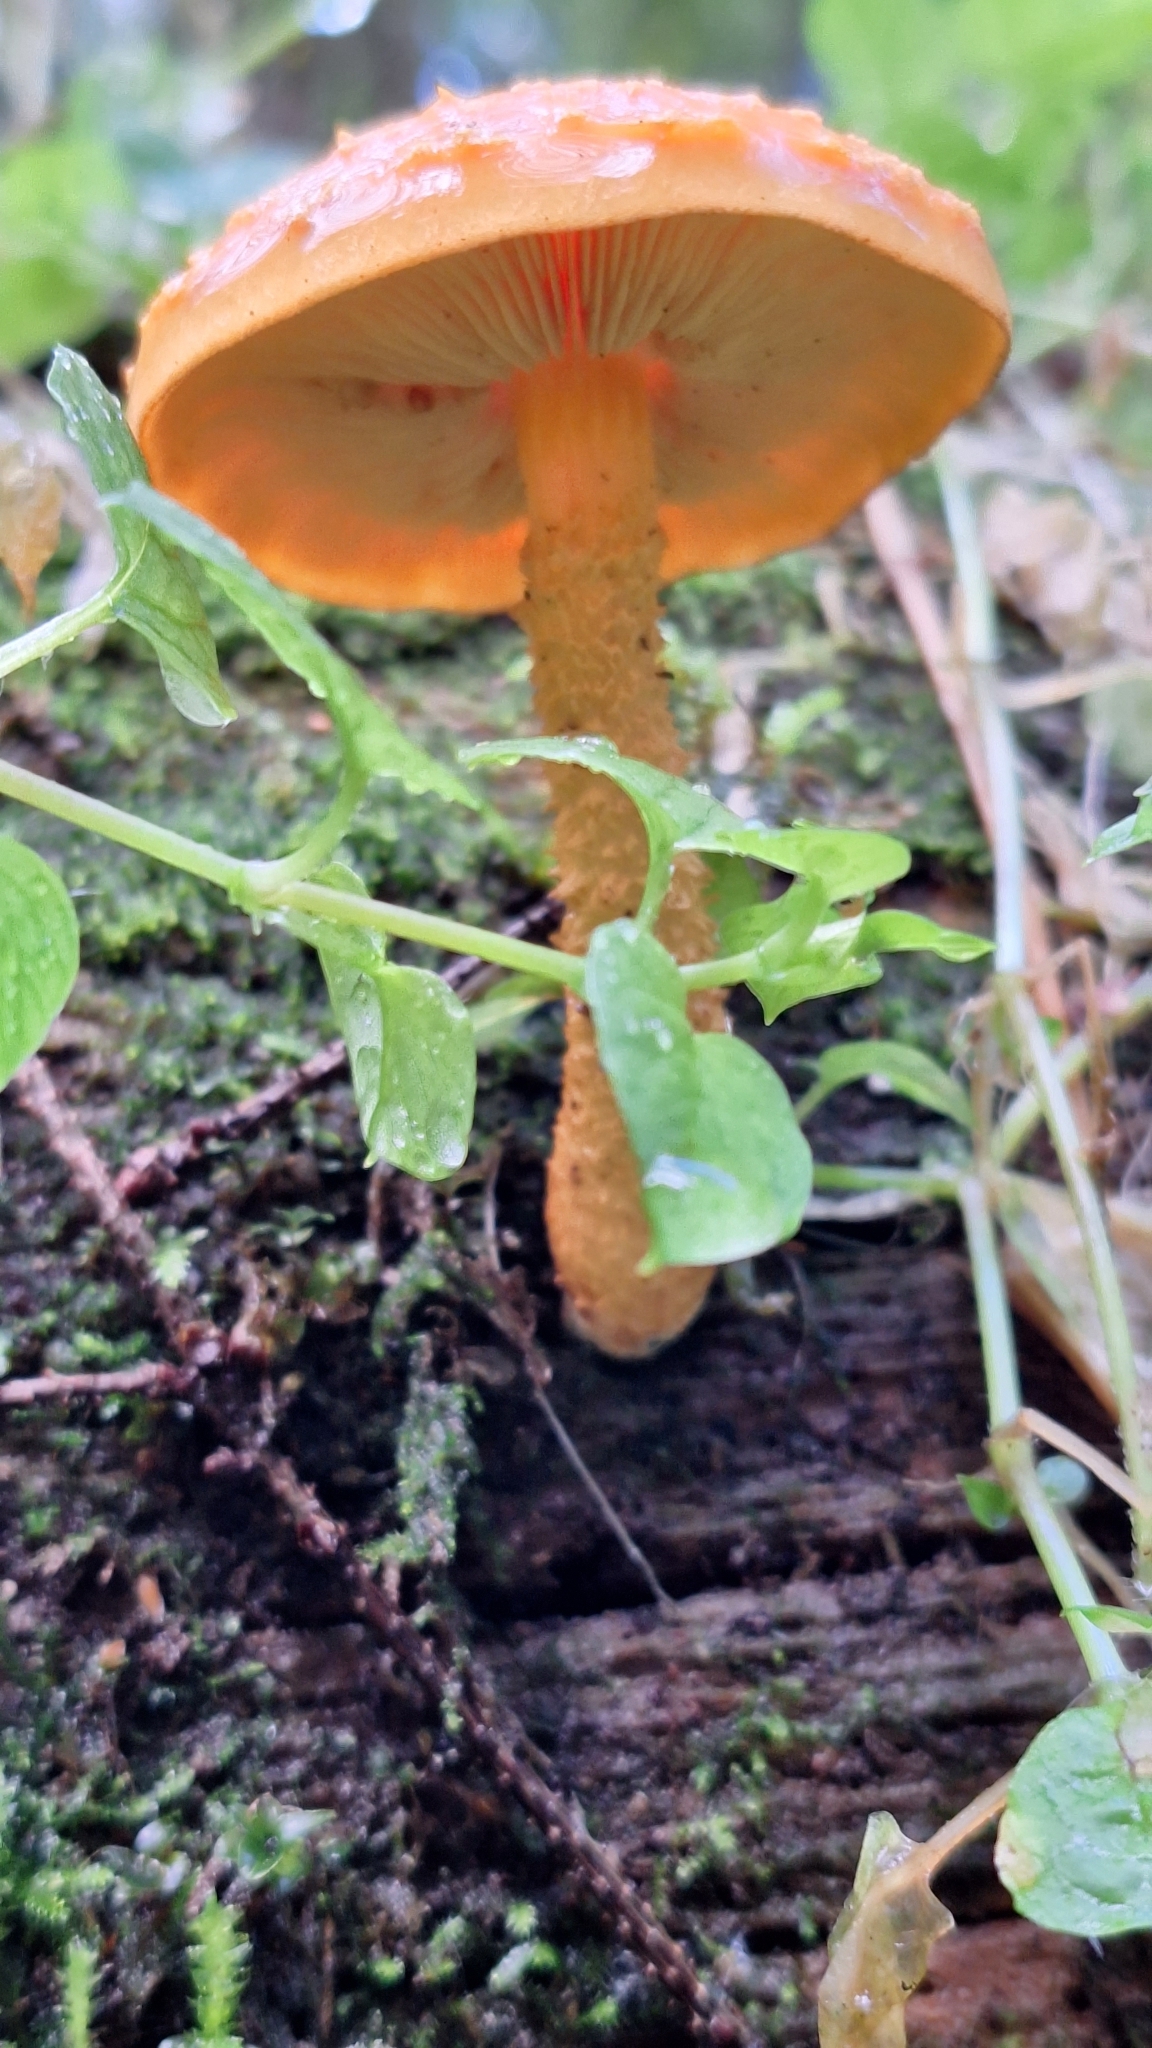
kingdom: Fungi
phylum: Basidiomycota
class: Agaricomycetes
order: Agaricales
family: Strophariaceae
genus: Pholiota
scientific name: Pholiota flammans
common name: Flaming scalycap
